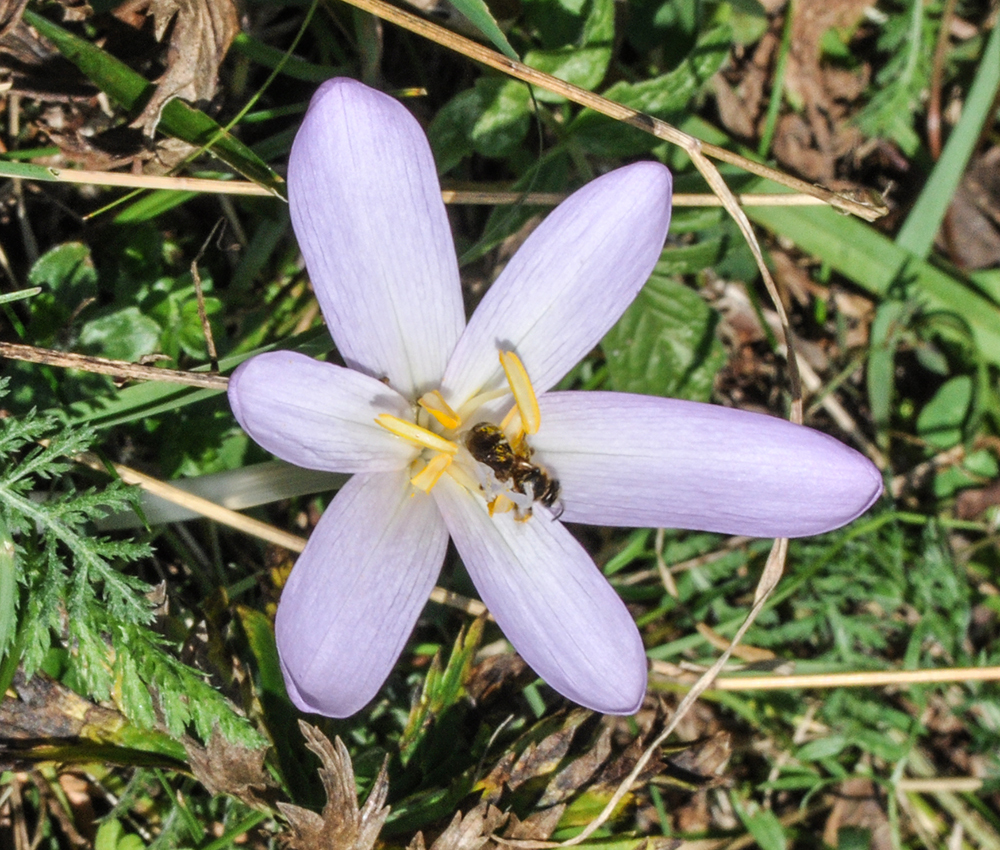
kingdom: Plantae
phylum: Tracheophyta
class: Liliopsida
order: Liliales
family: Colchicaceae
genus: Colchicum
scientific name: Colchicum autumnale
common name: Autumn crocus
